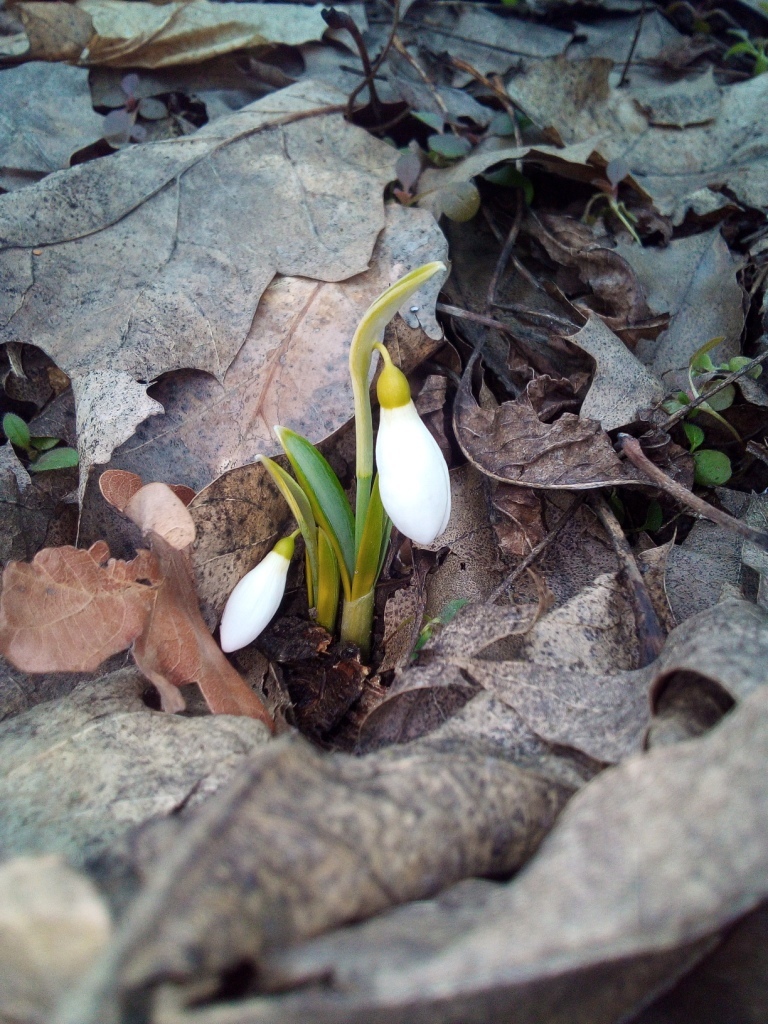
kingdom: Plantae
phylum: Tracheophyta
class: Liliopsida
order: Asparagales
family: Amaryllidaceae
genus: Galanthus
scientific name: Galanthus plicatus
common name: Pleated snowdrop
